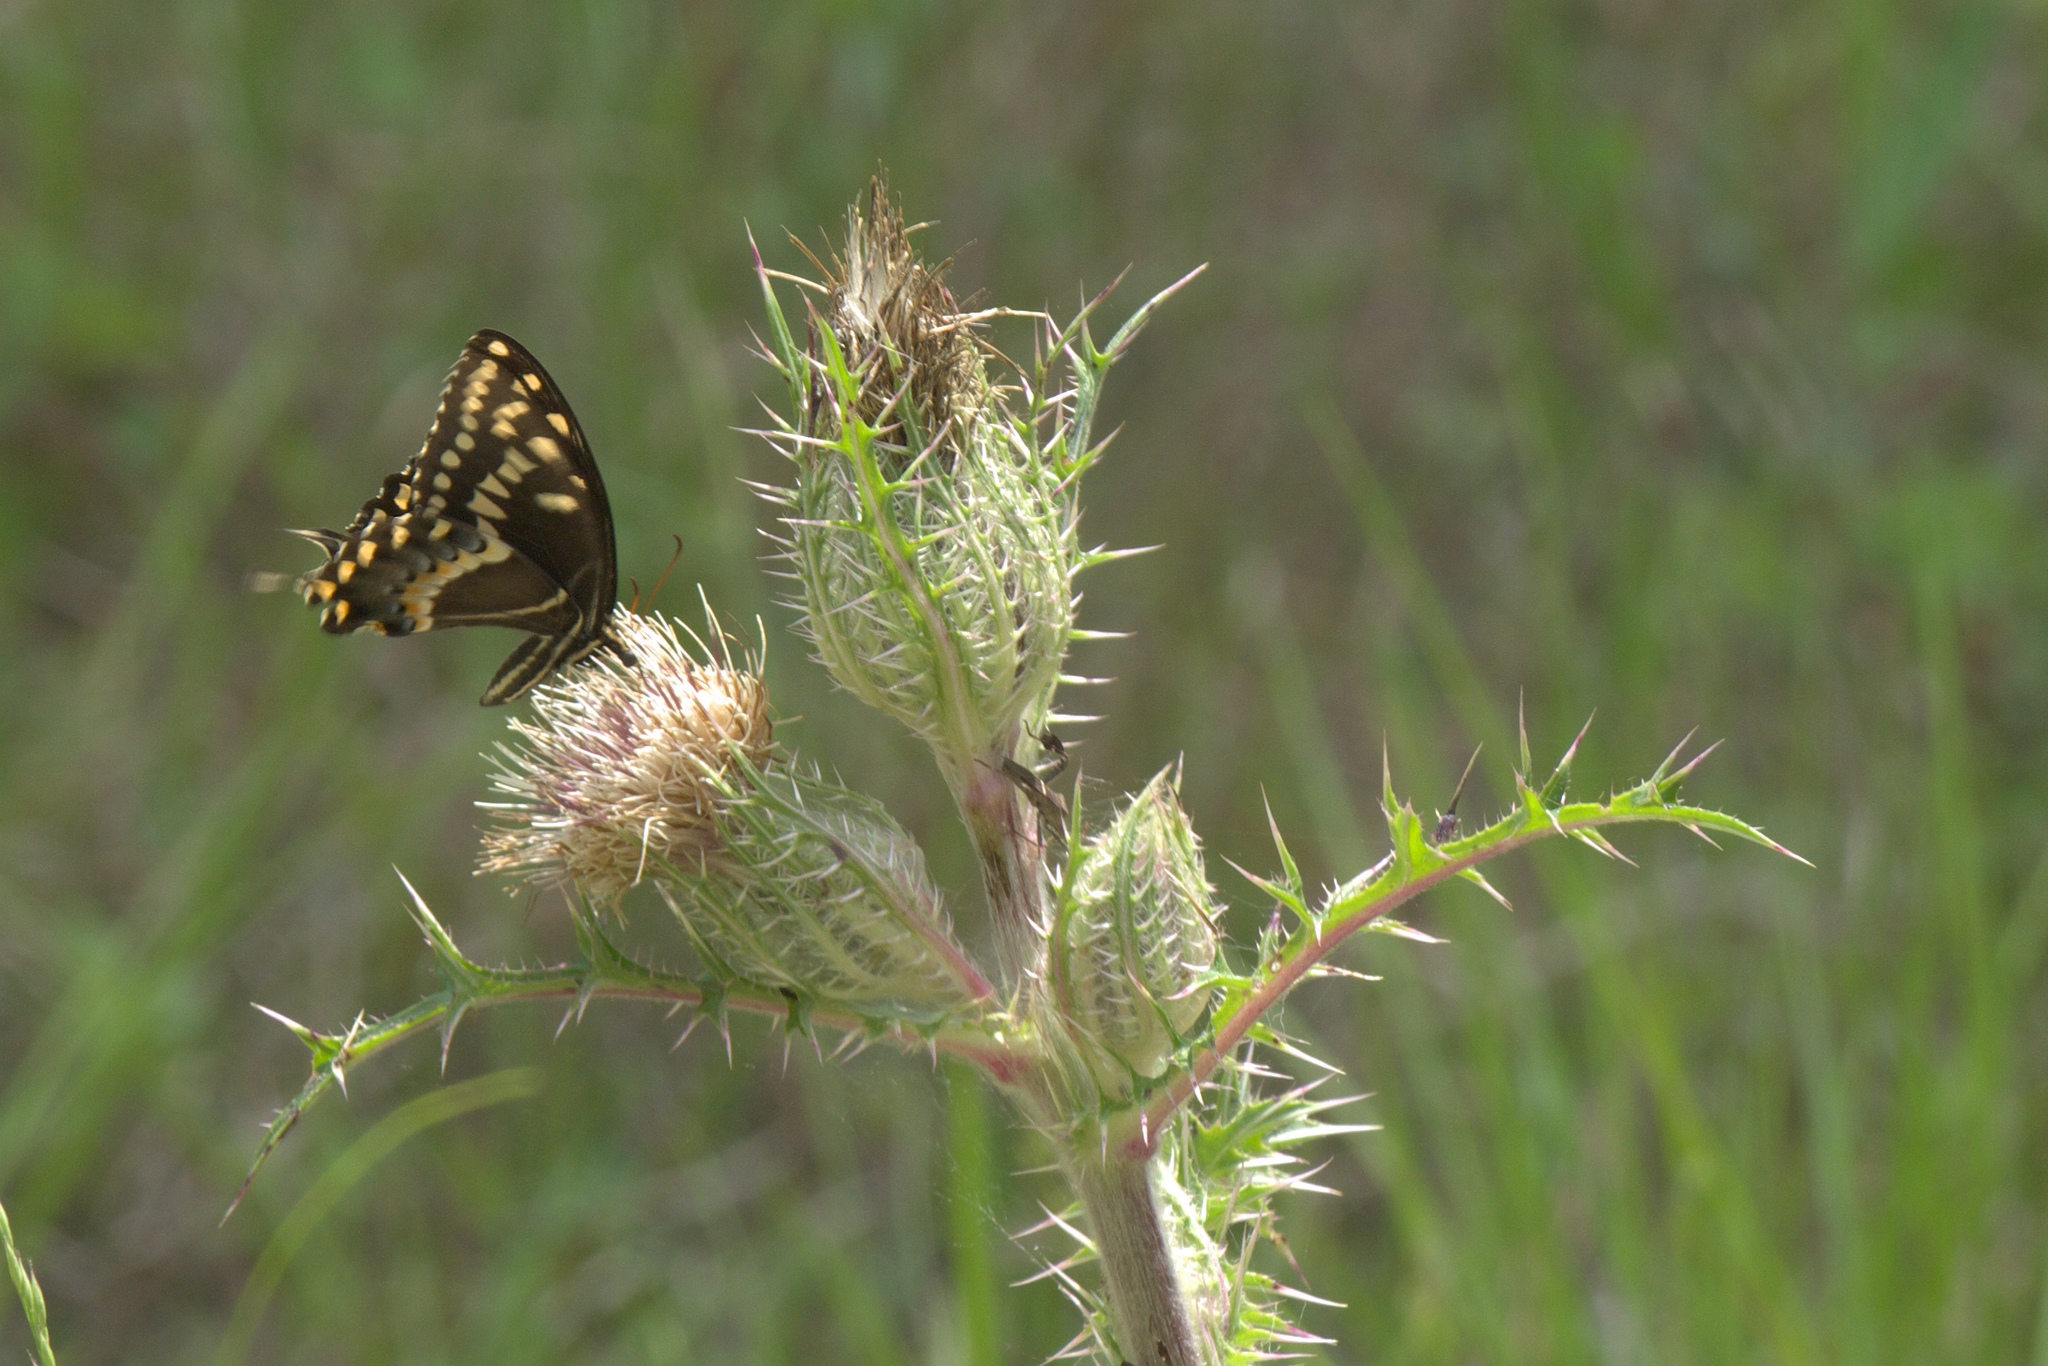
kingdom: Plantae
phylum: Tracheophyta
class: Magnoliopsida
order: Asterales
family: Asteraceae
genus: Cirsium
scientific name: Cirsium horridulum
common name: Bristly thistle
